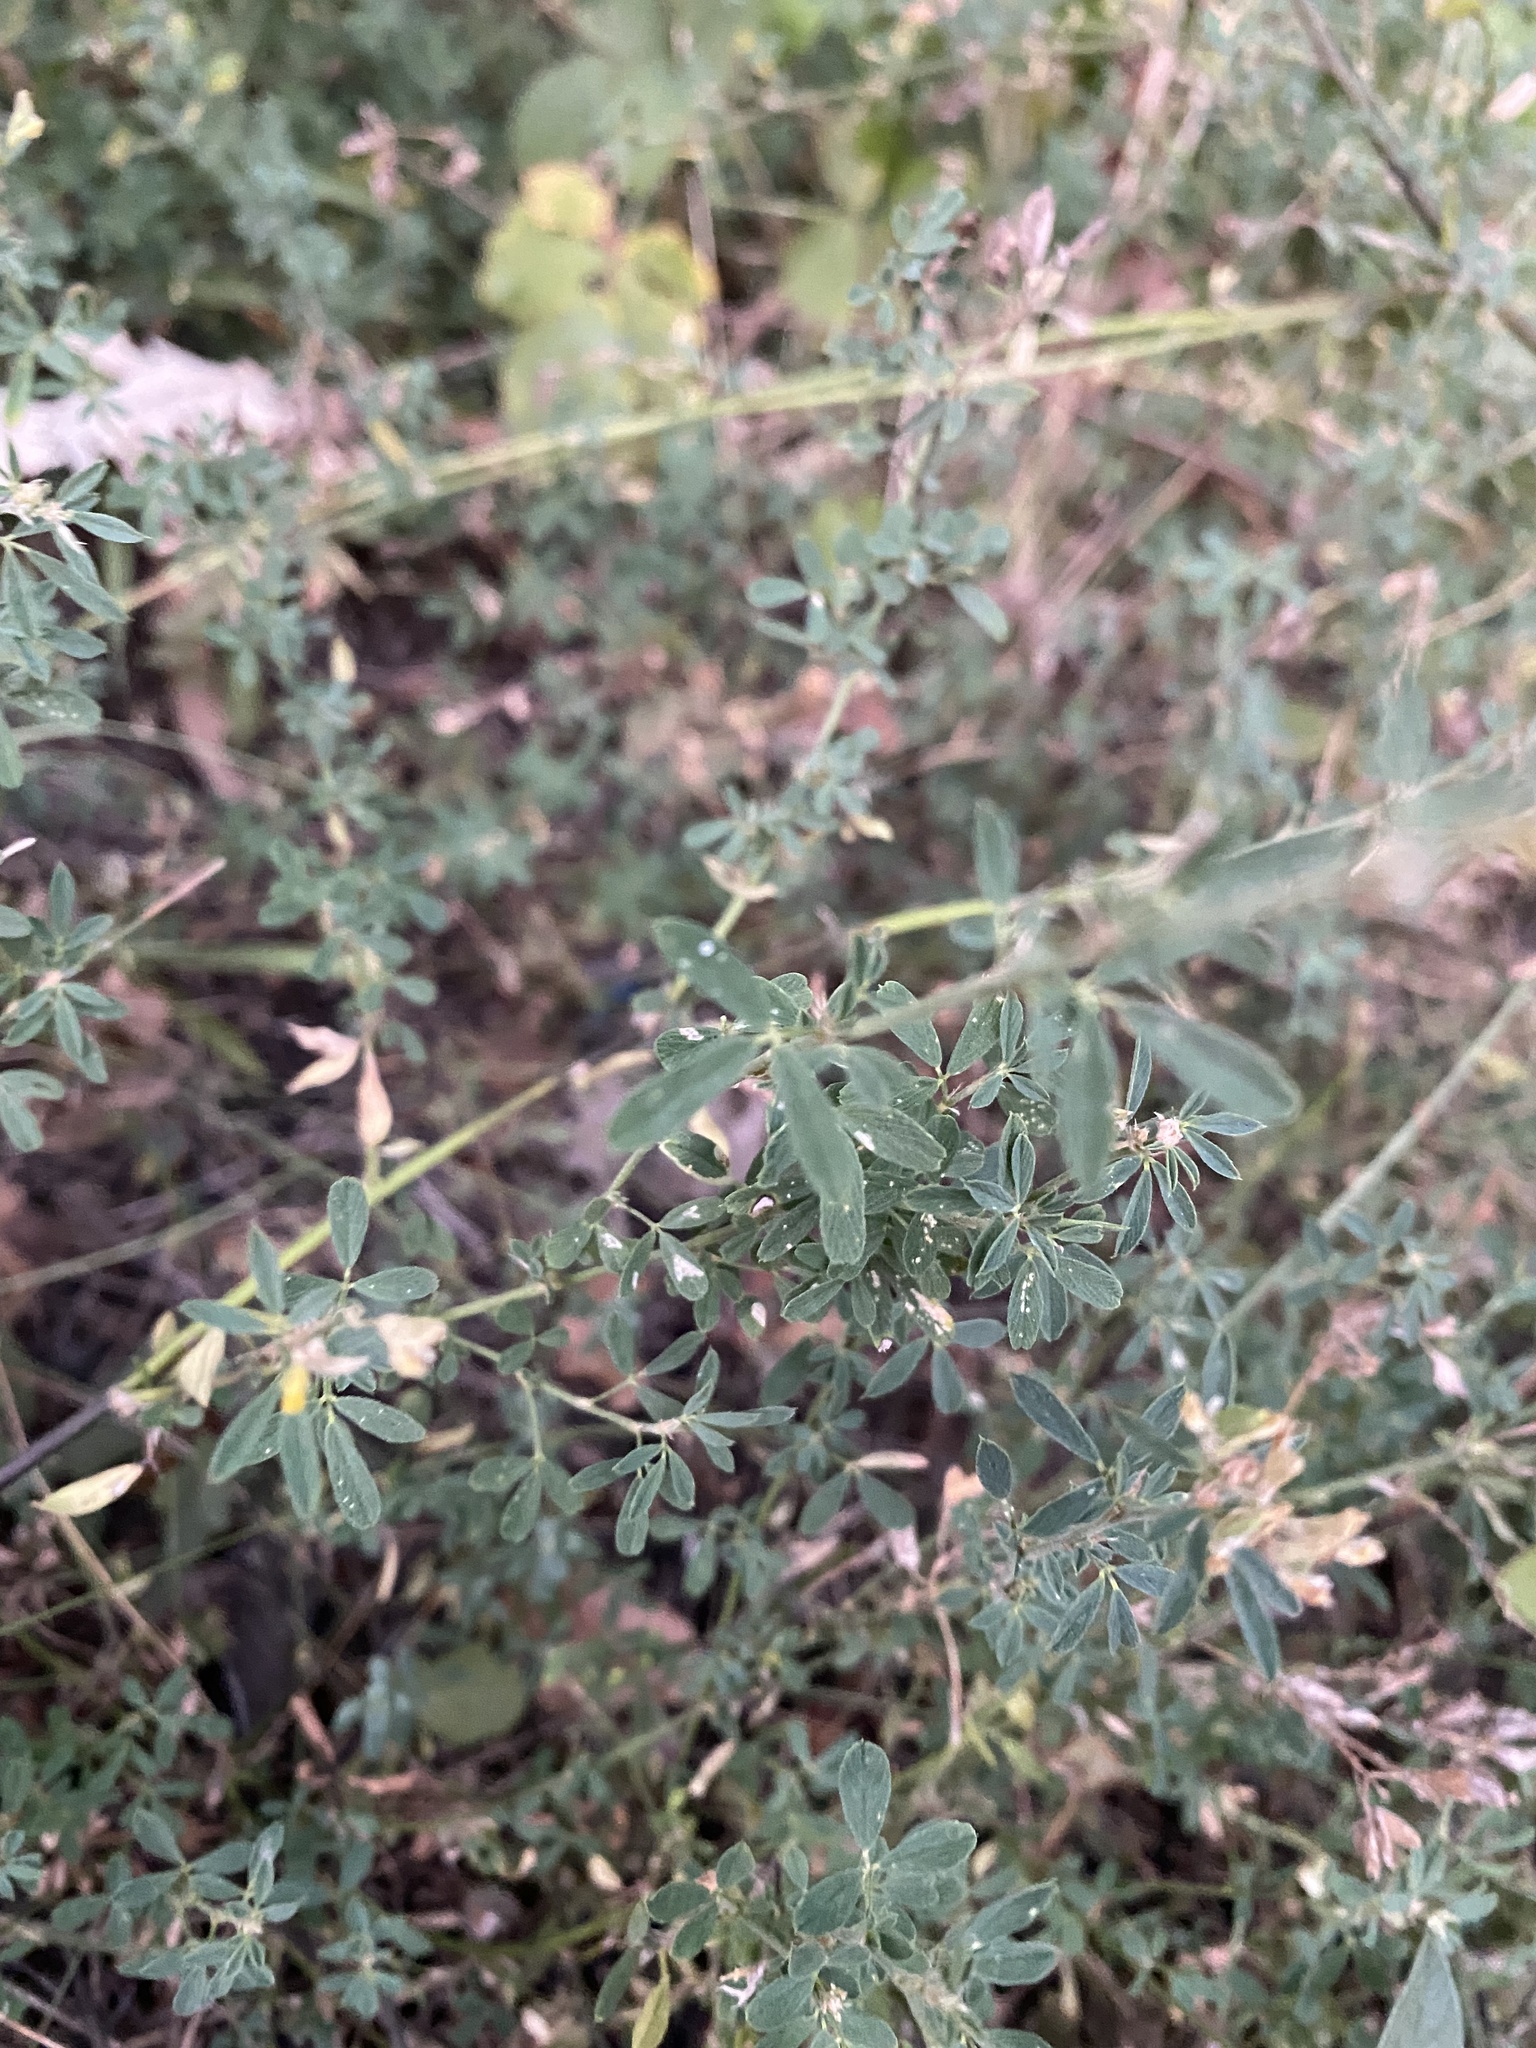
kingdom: Plantae
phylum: Tracheophyta
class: Magnoliopsida
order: Fabales
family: Fabaceae
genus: Medicago
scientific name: Medicago falcata
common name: Sickle medick
